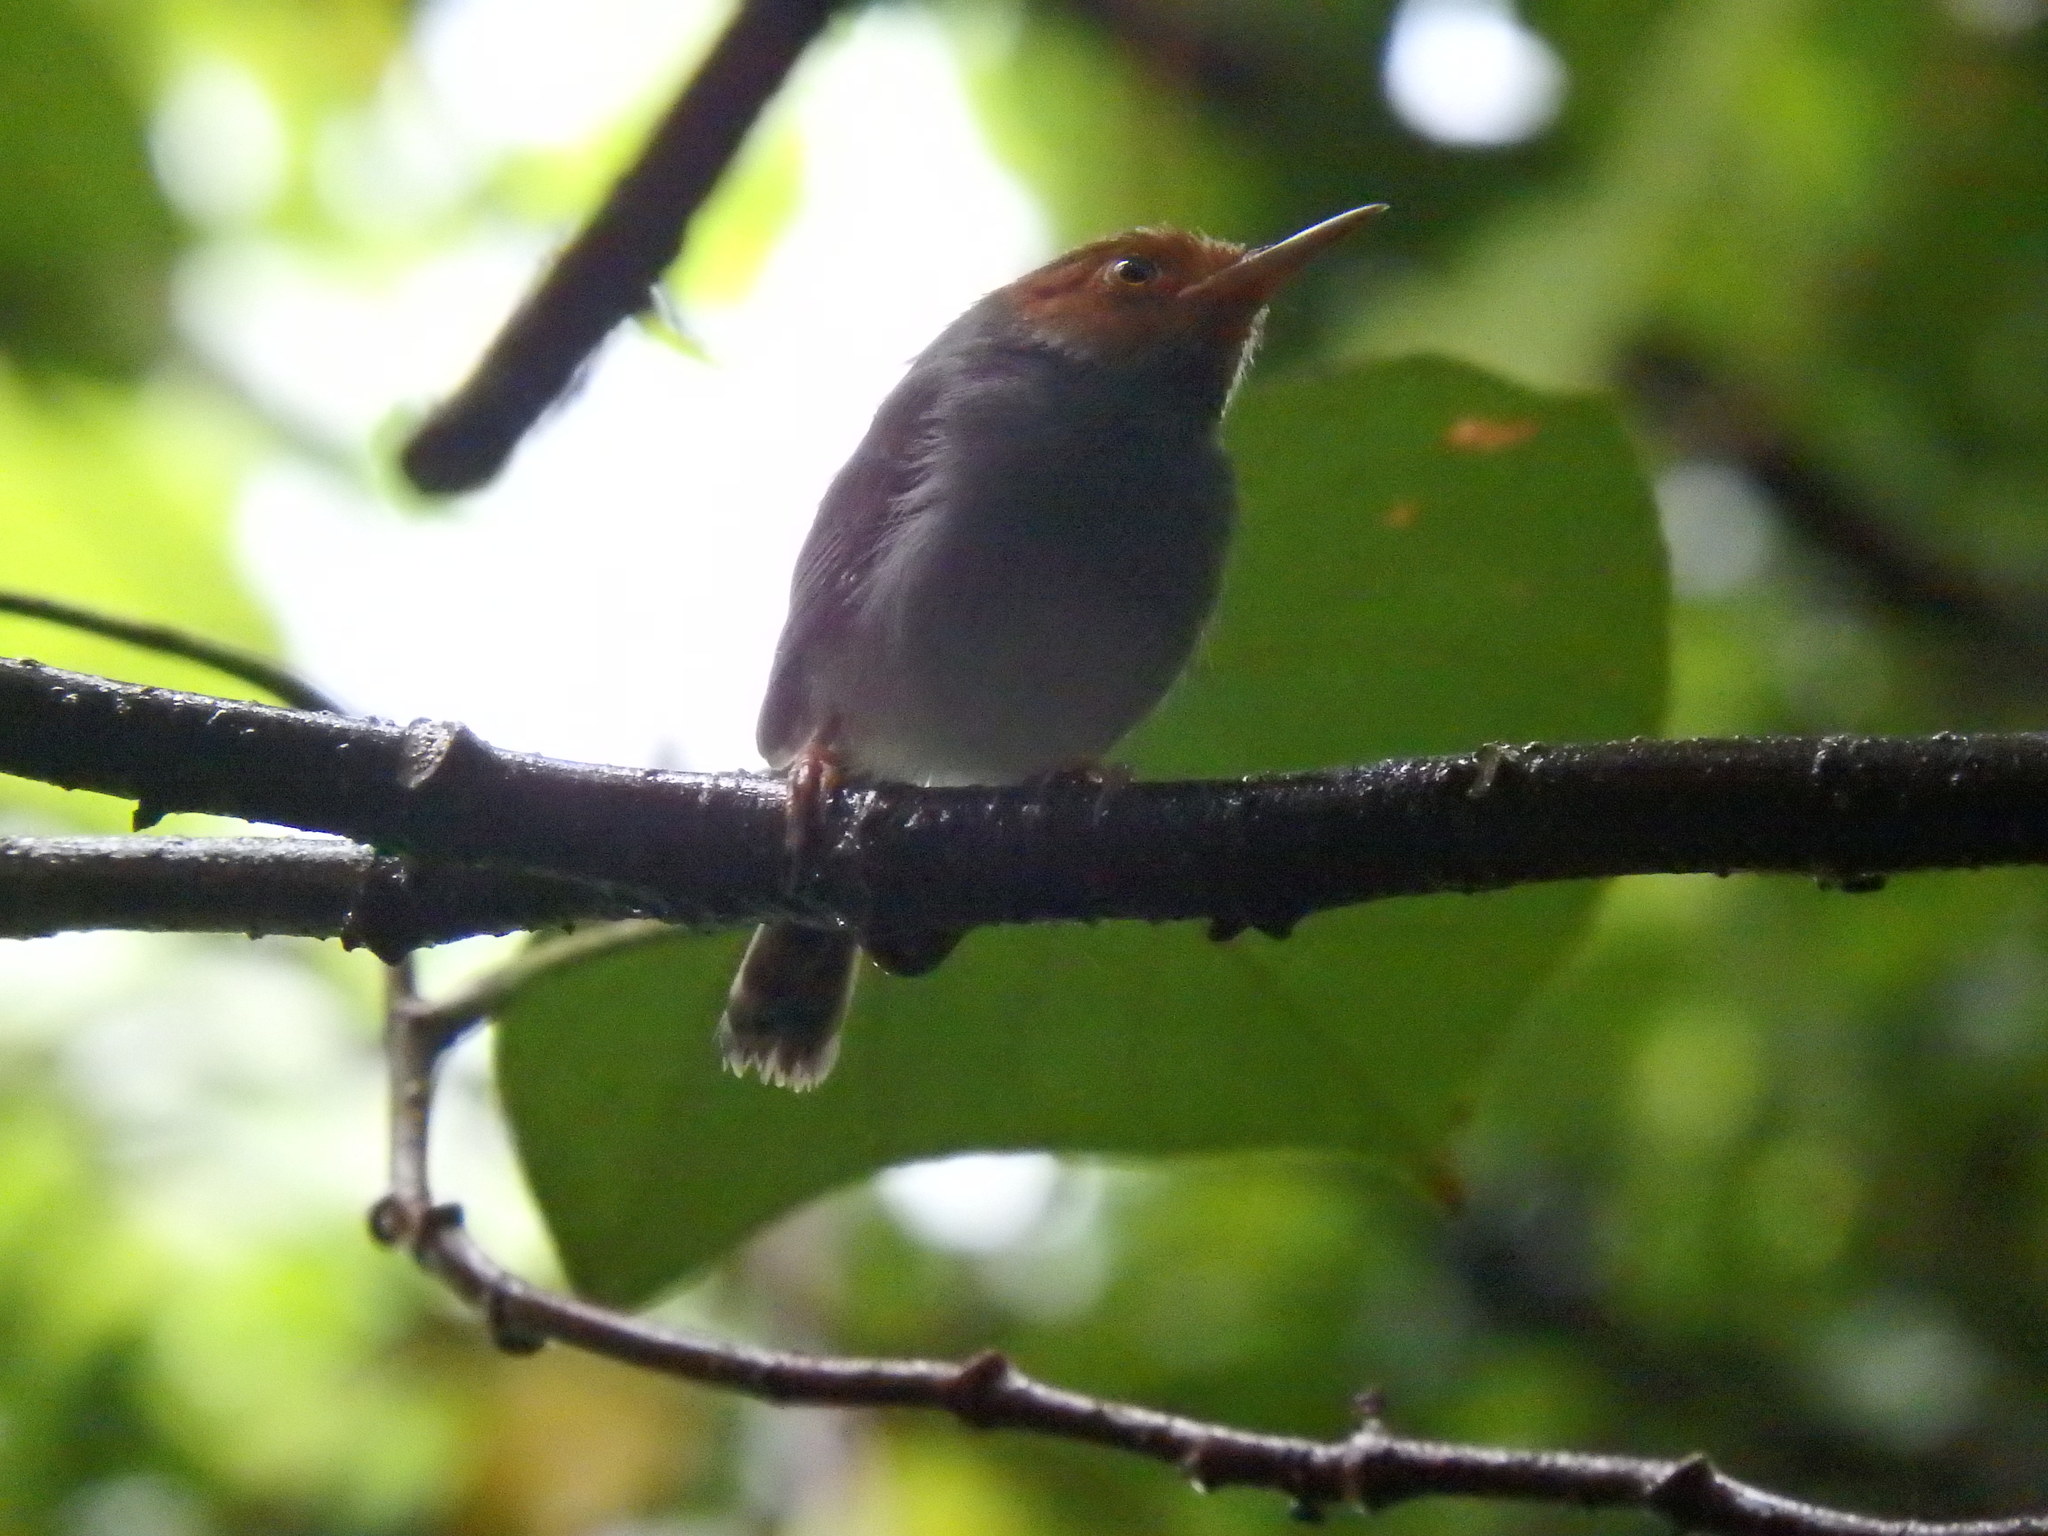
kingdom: Animalia
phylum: Chordata
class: Aves
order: Passeriformes
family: Cisticolidae
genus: Orthotomus
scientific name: Orthotomus ruficeps
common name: Ashy tailorbird
